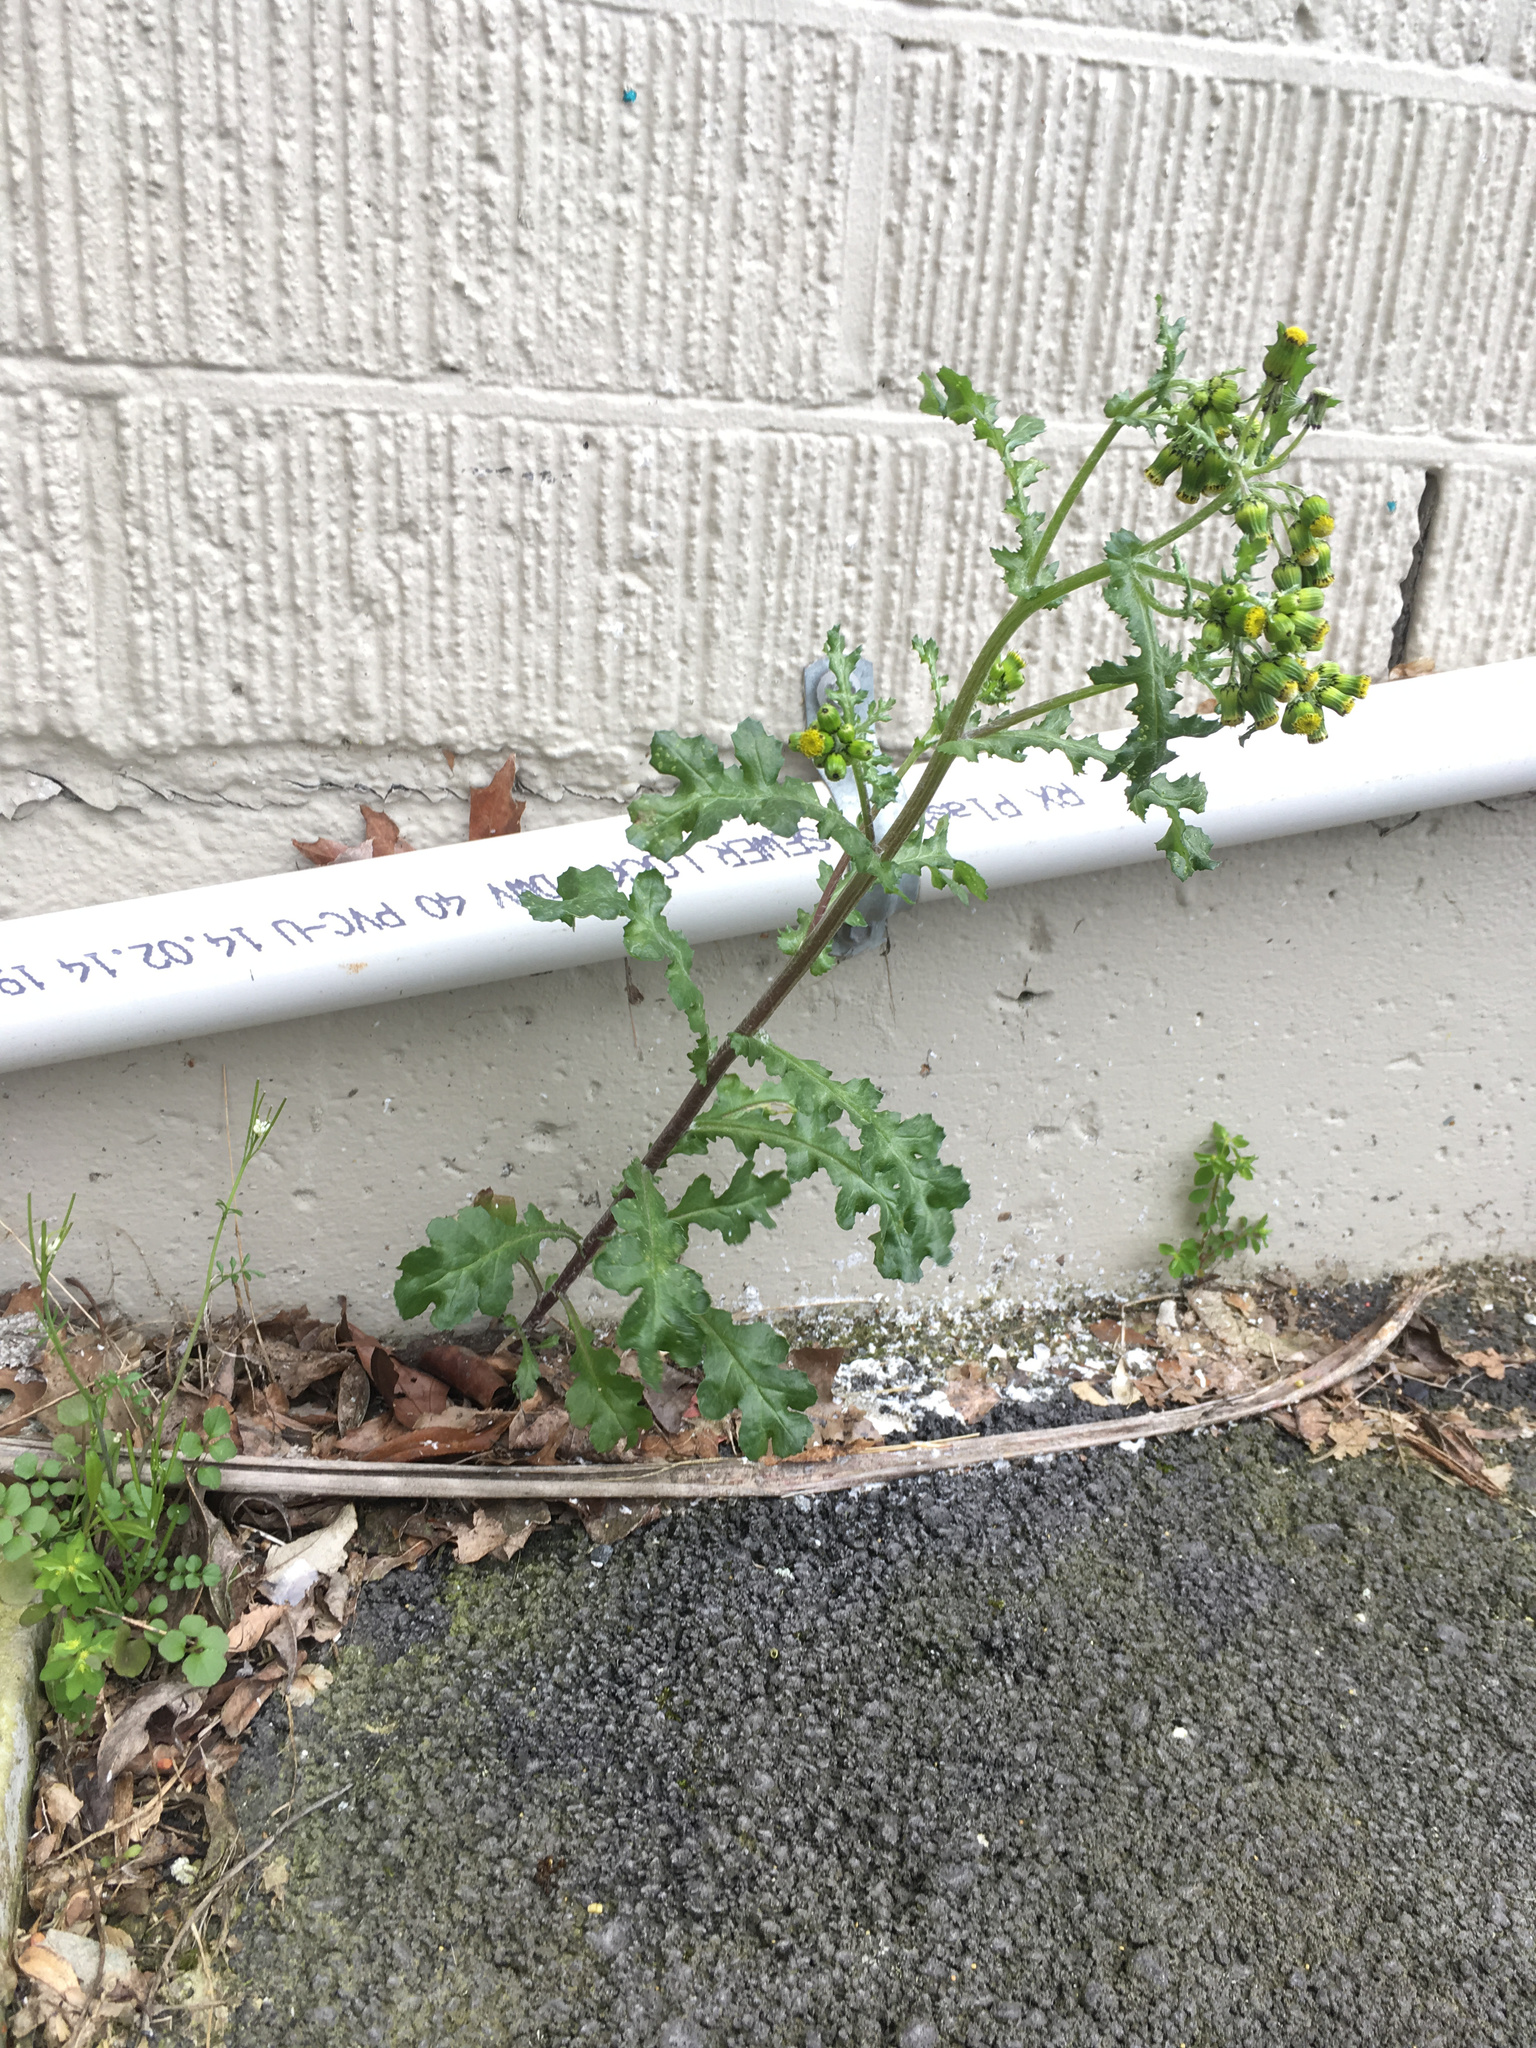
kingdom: Plantae
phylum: Tracheophyta
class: Magnoliopsida
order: Asterales
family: Asteraceae
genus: Senecio
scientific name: Senecio vulgaris
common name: Old-man-in-the-spring
